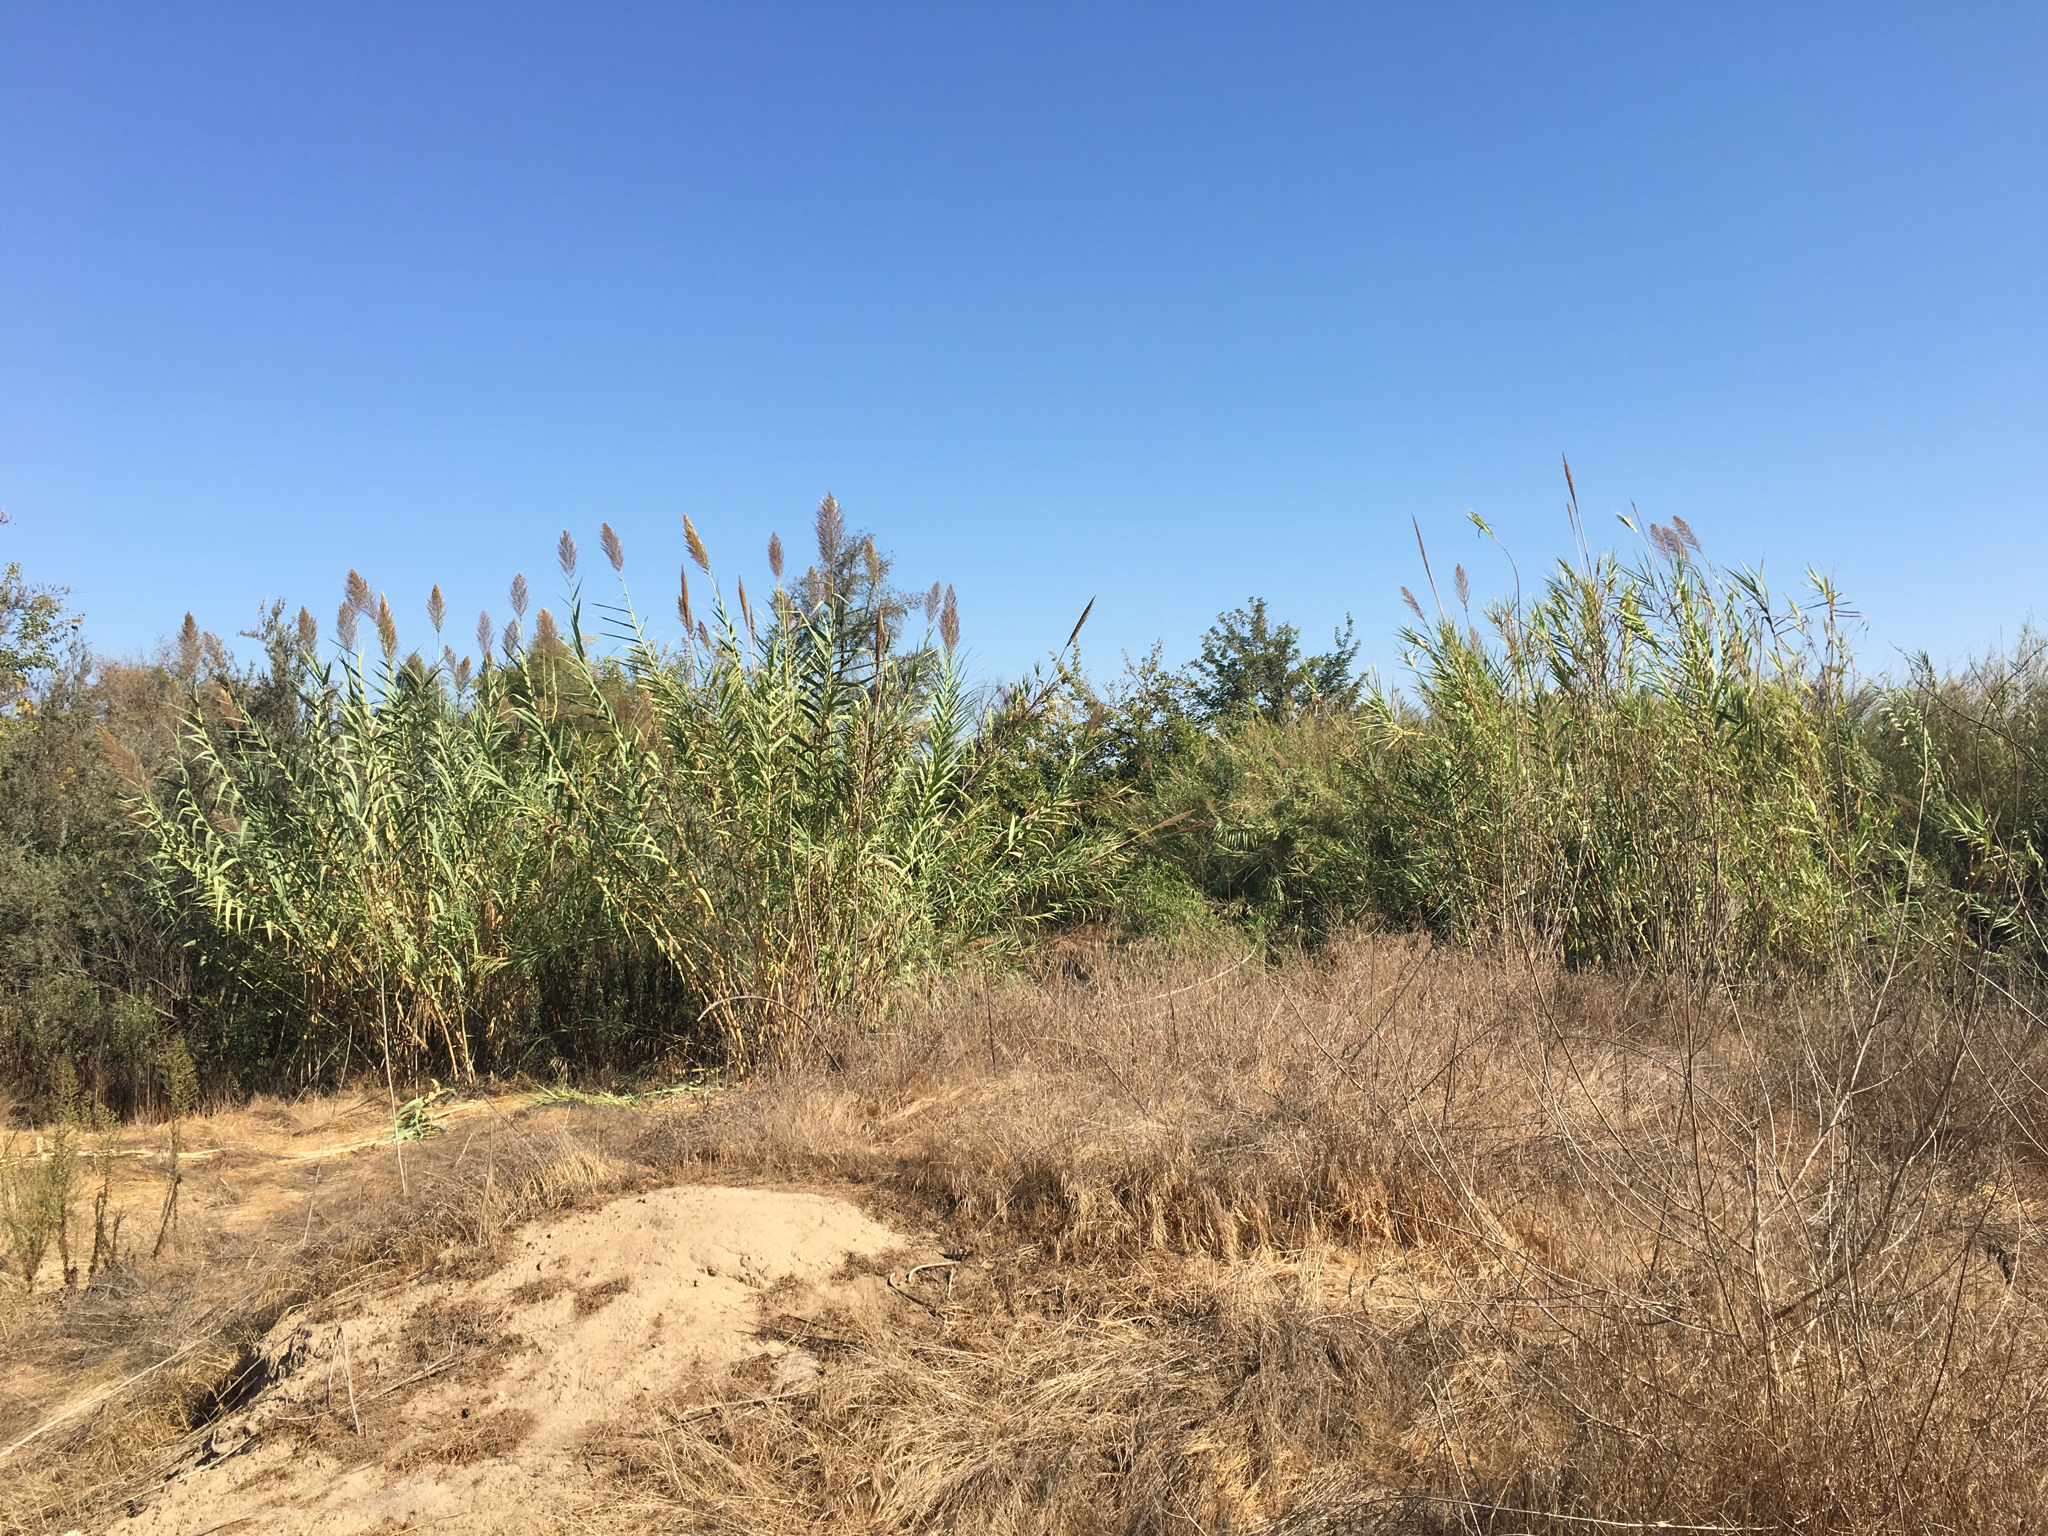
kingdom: Plantae
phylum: Tracheophyta
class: Liliopsida
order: Poales
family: Poaceae
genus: Arundo
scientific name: Arundo donax
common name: Giant reed
